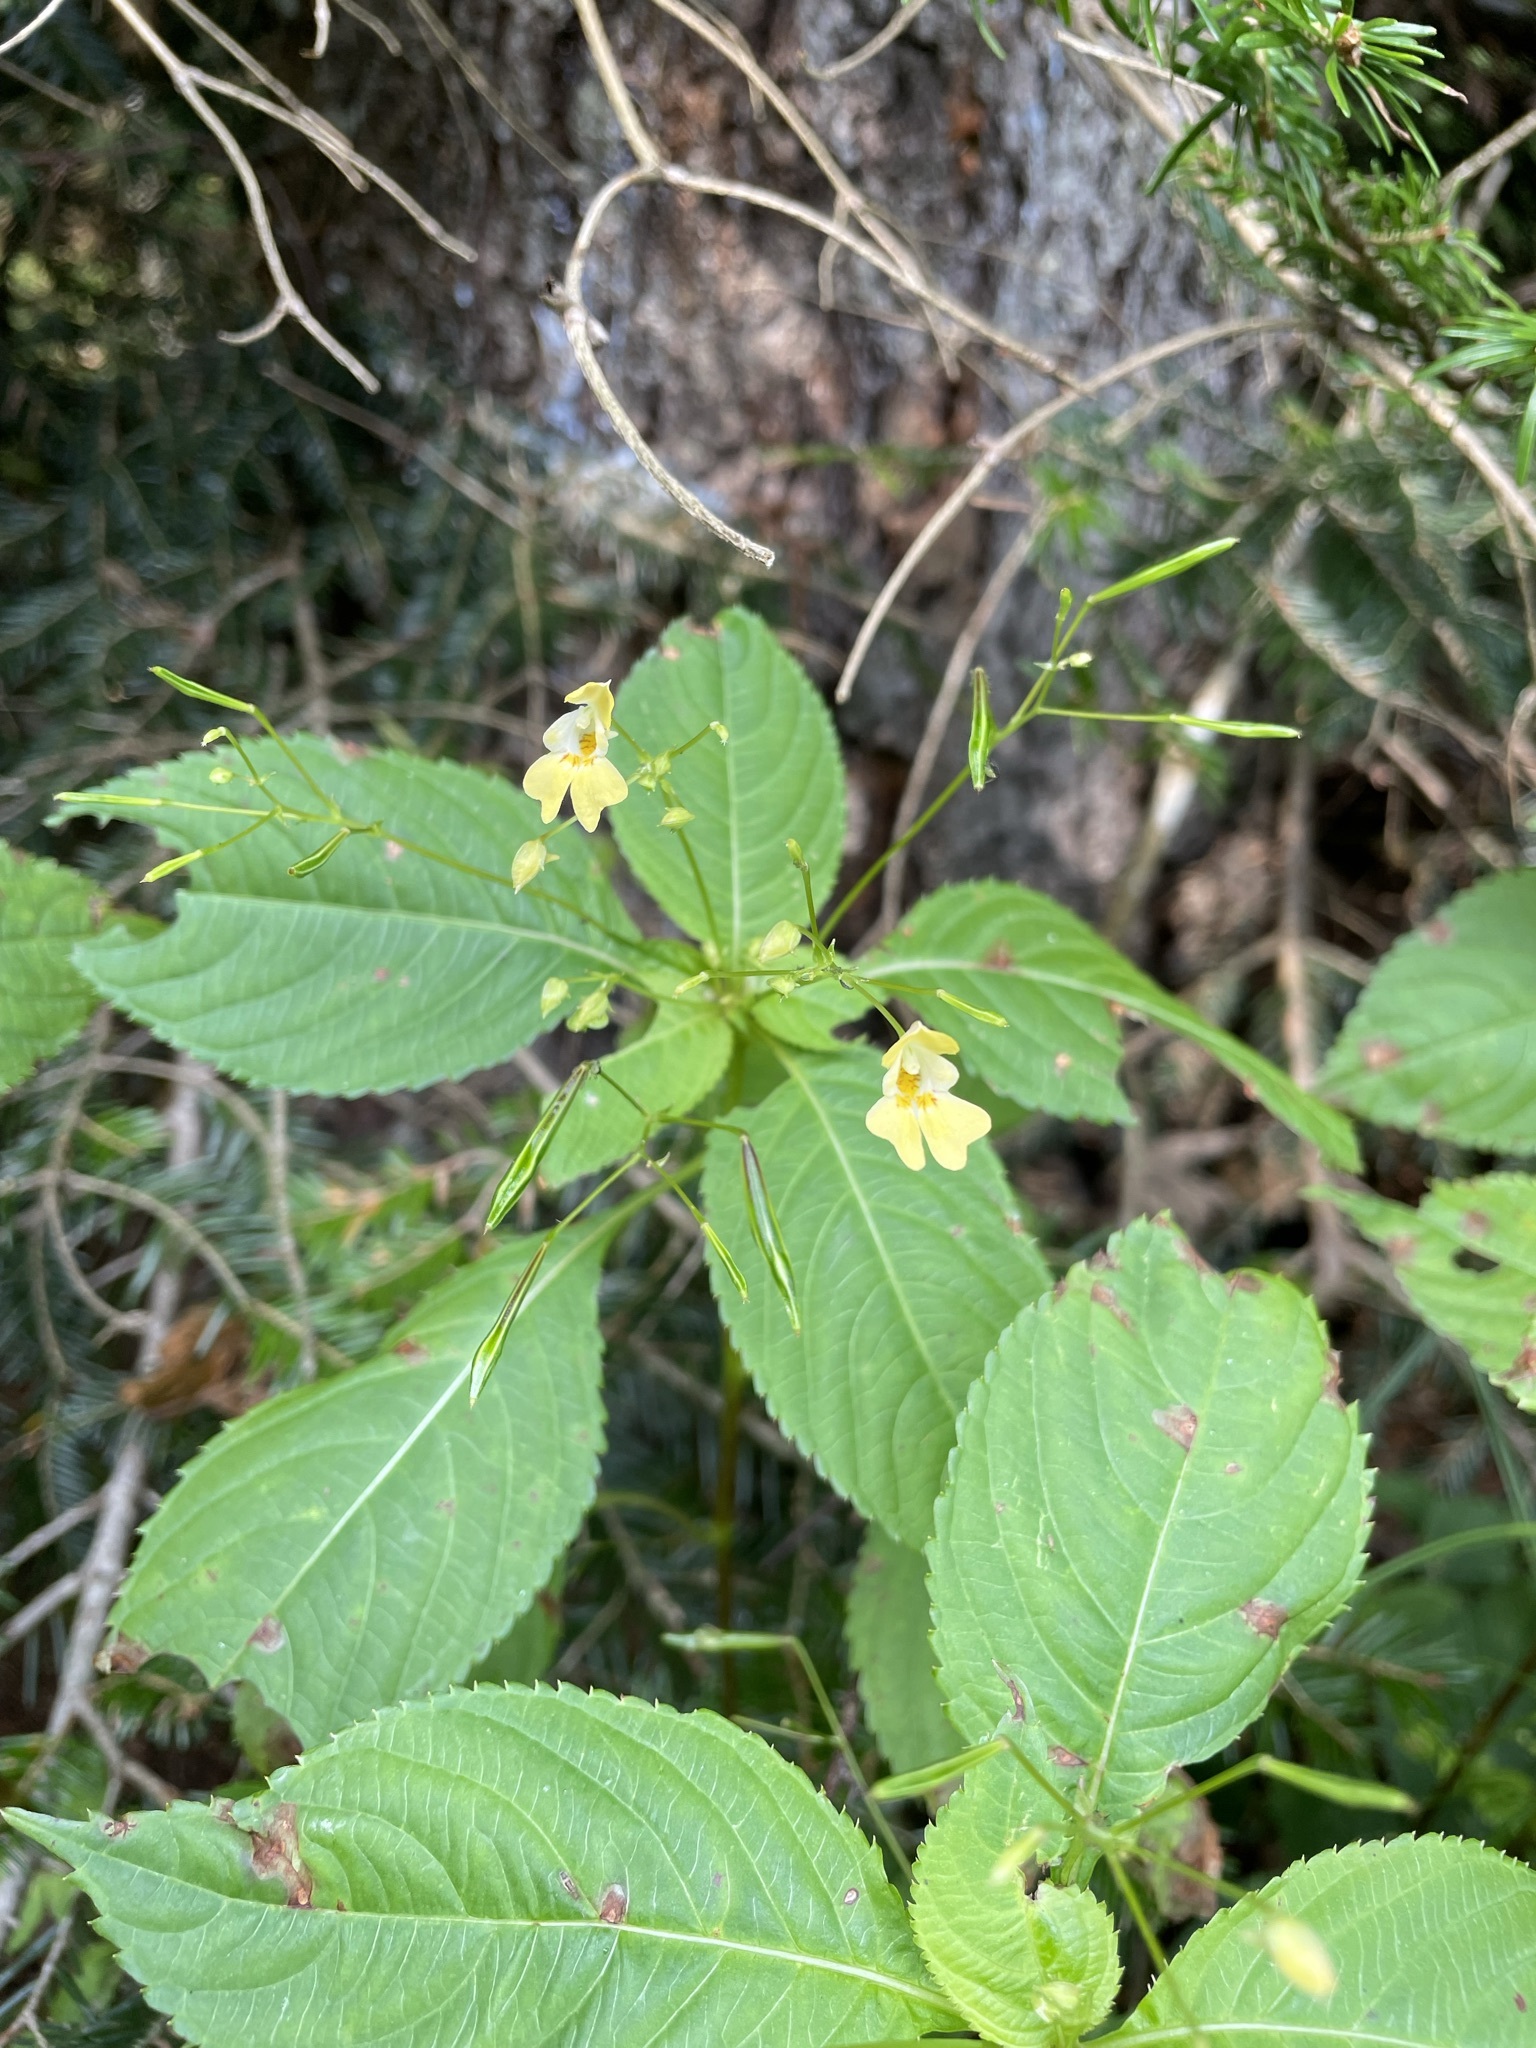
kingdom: Plantae
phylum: Tracheophyta
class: Magnoliopsida
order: Ericales
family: Balsaminaceae
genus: Impatiens
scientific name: Impatiens parviflora
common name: Small balsam
